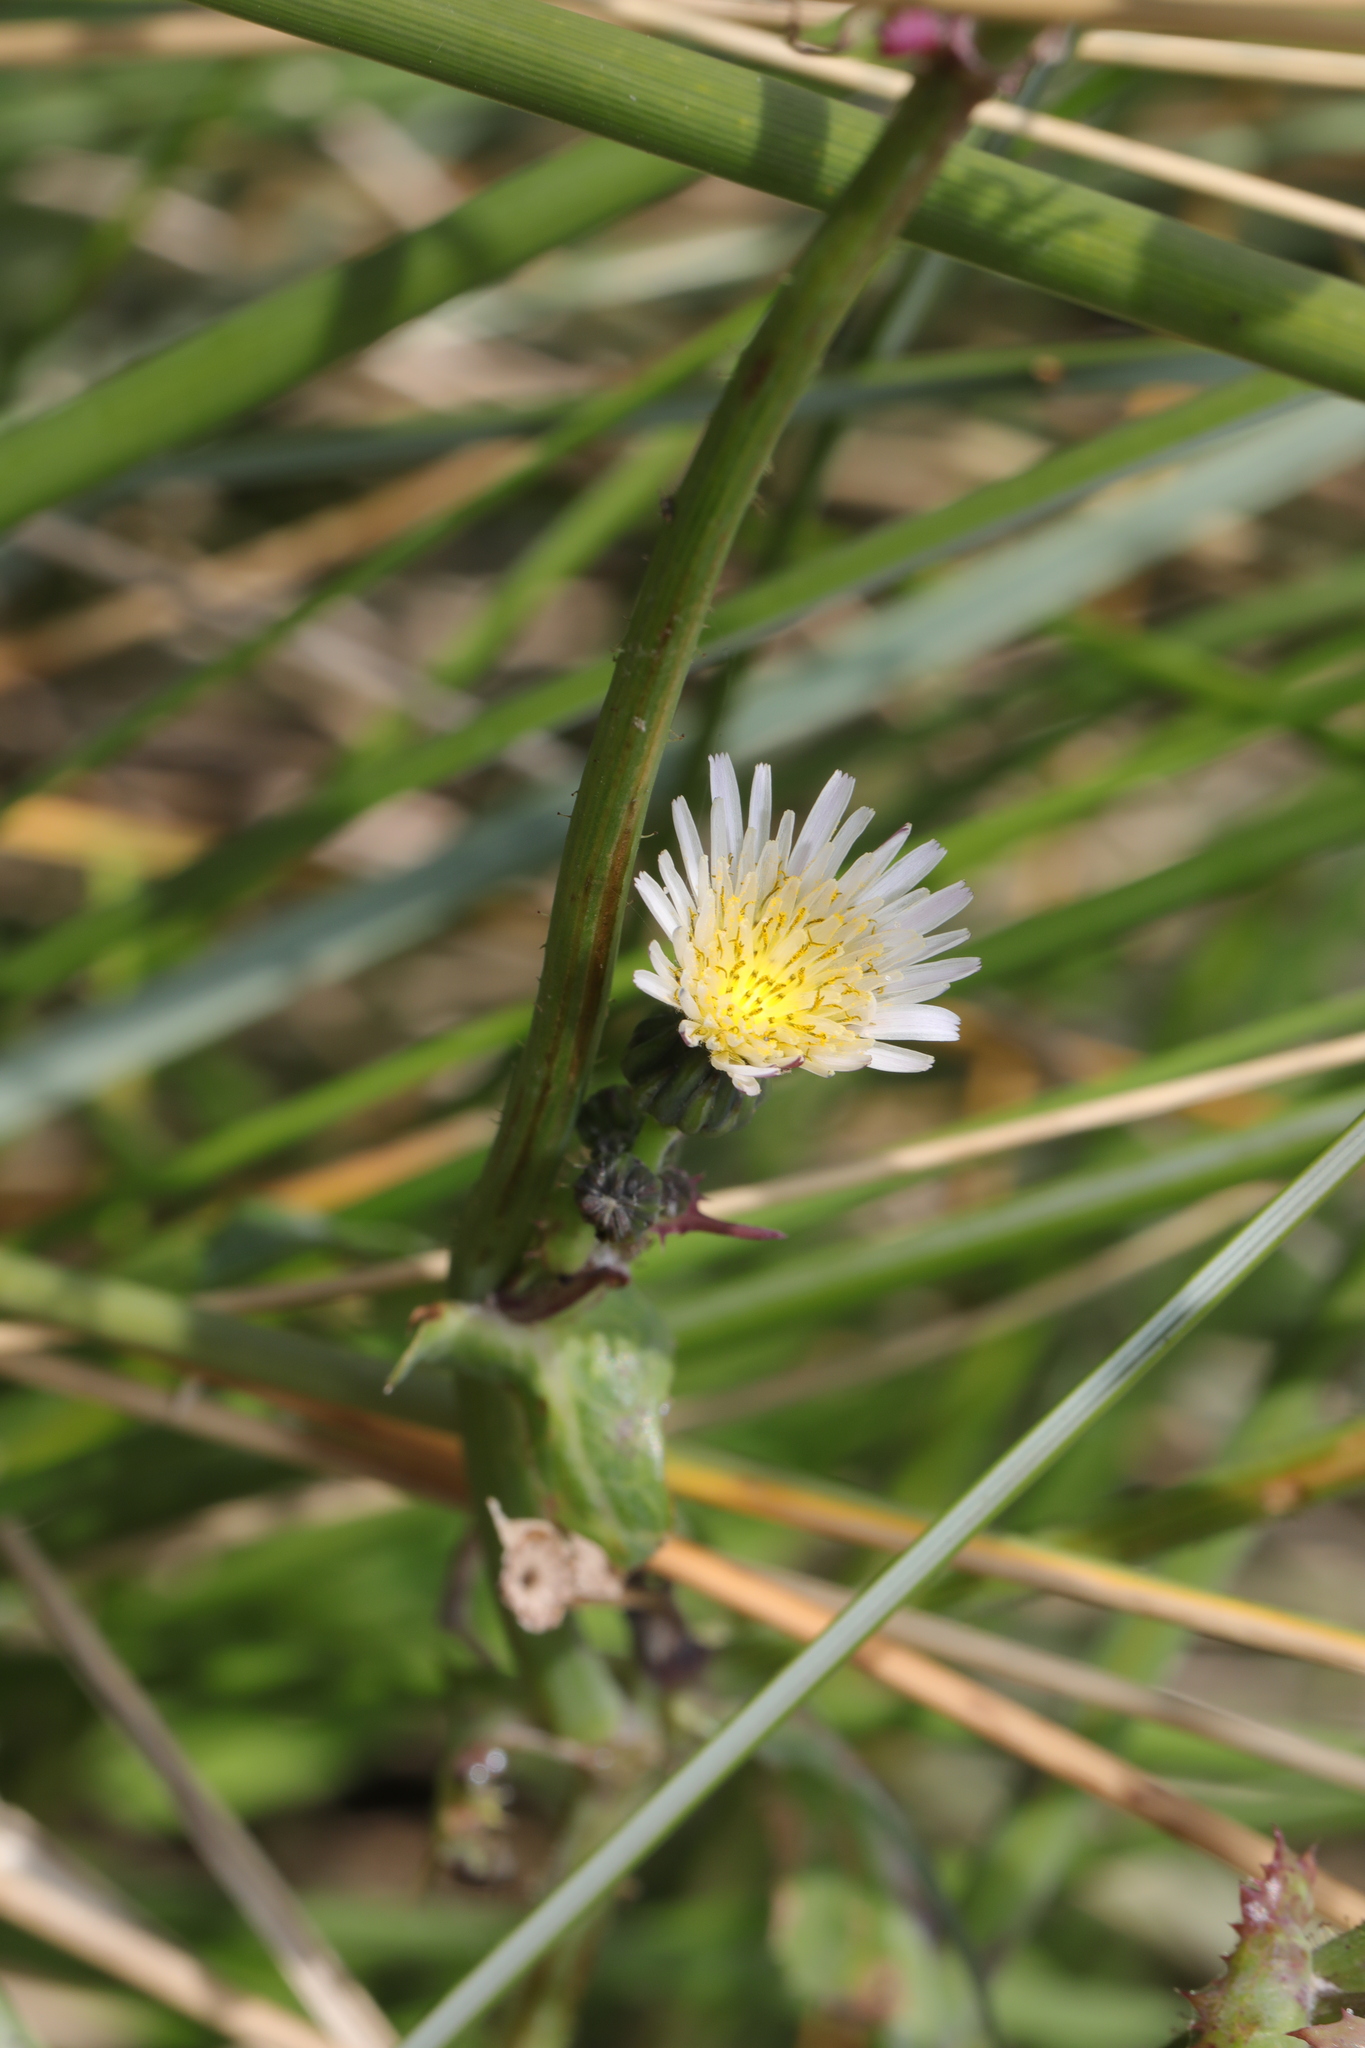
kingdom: Plantae
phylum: Tracheophyta
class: Magnoliopsida
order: Asterales
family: Asteraceae
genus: Sonchus
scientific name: Sonchus oleraceus
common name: Common sowthistle
